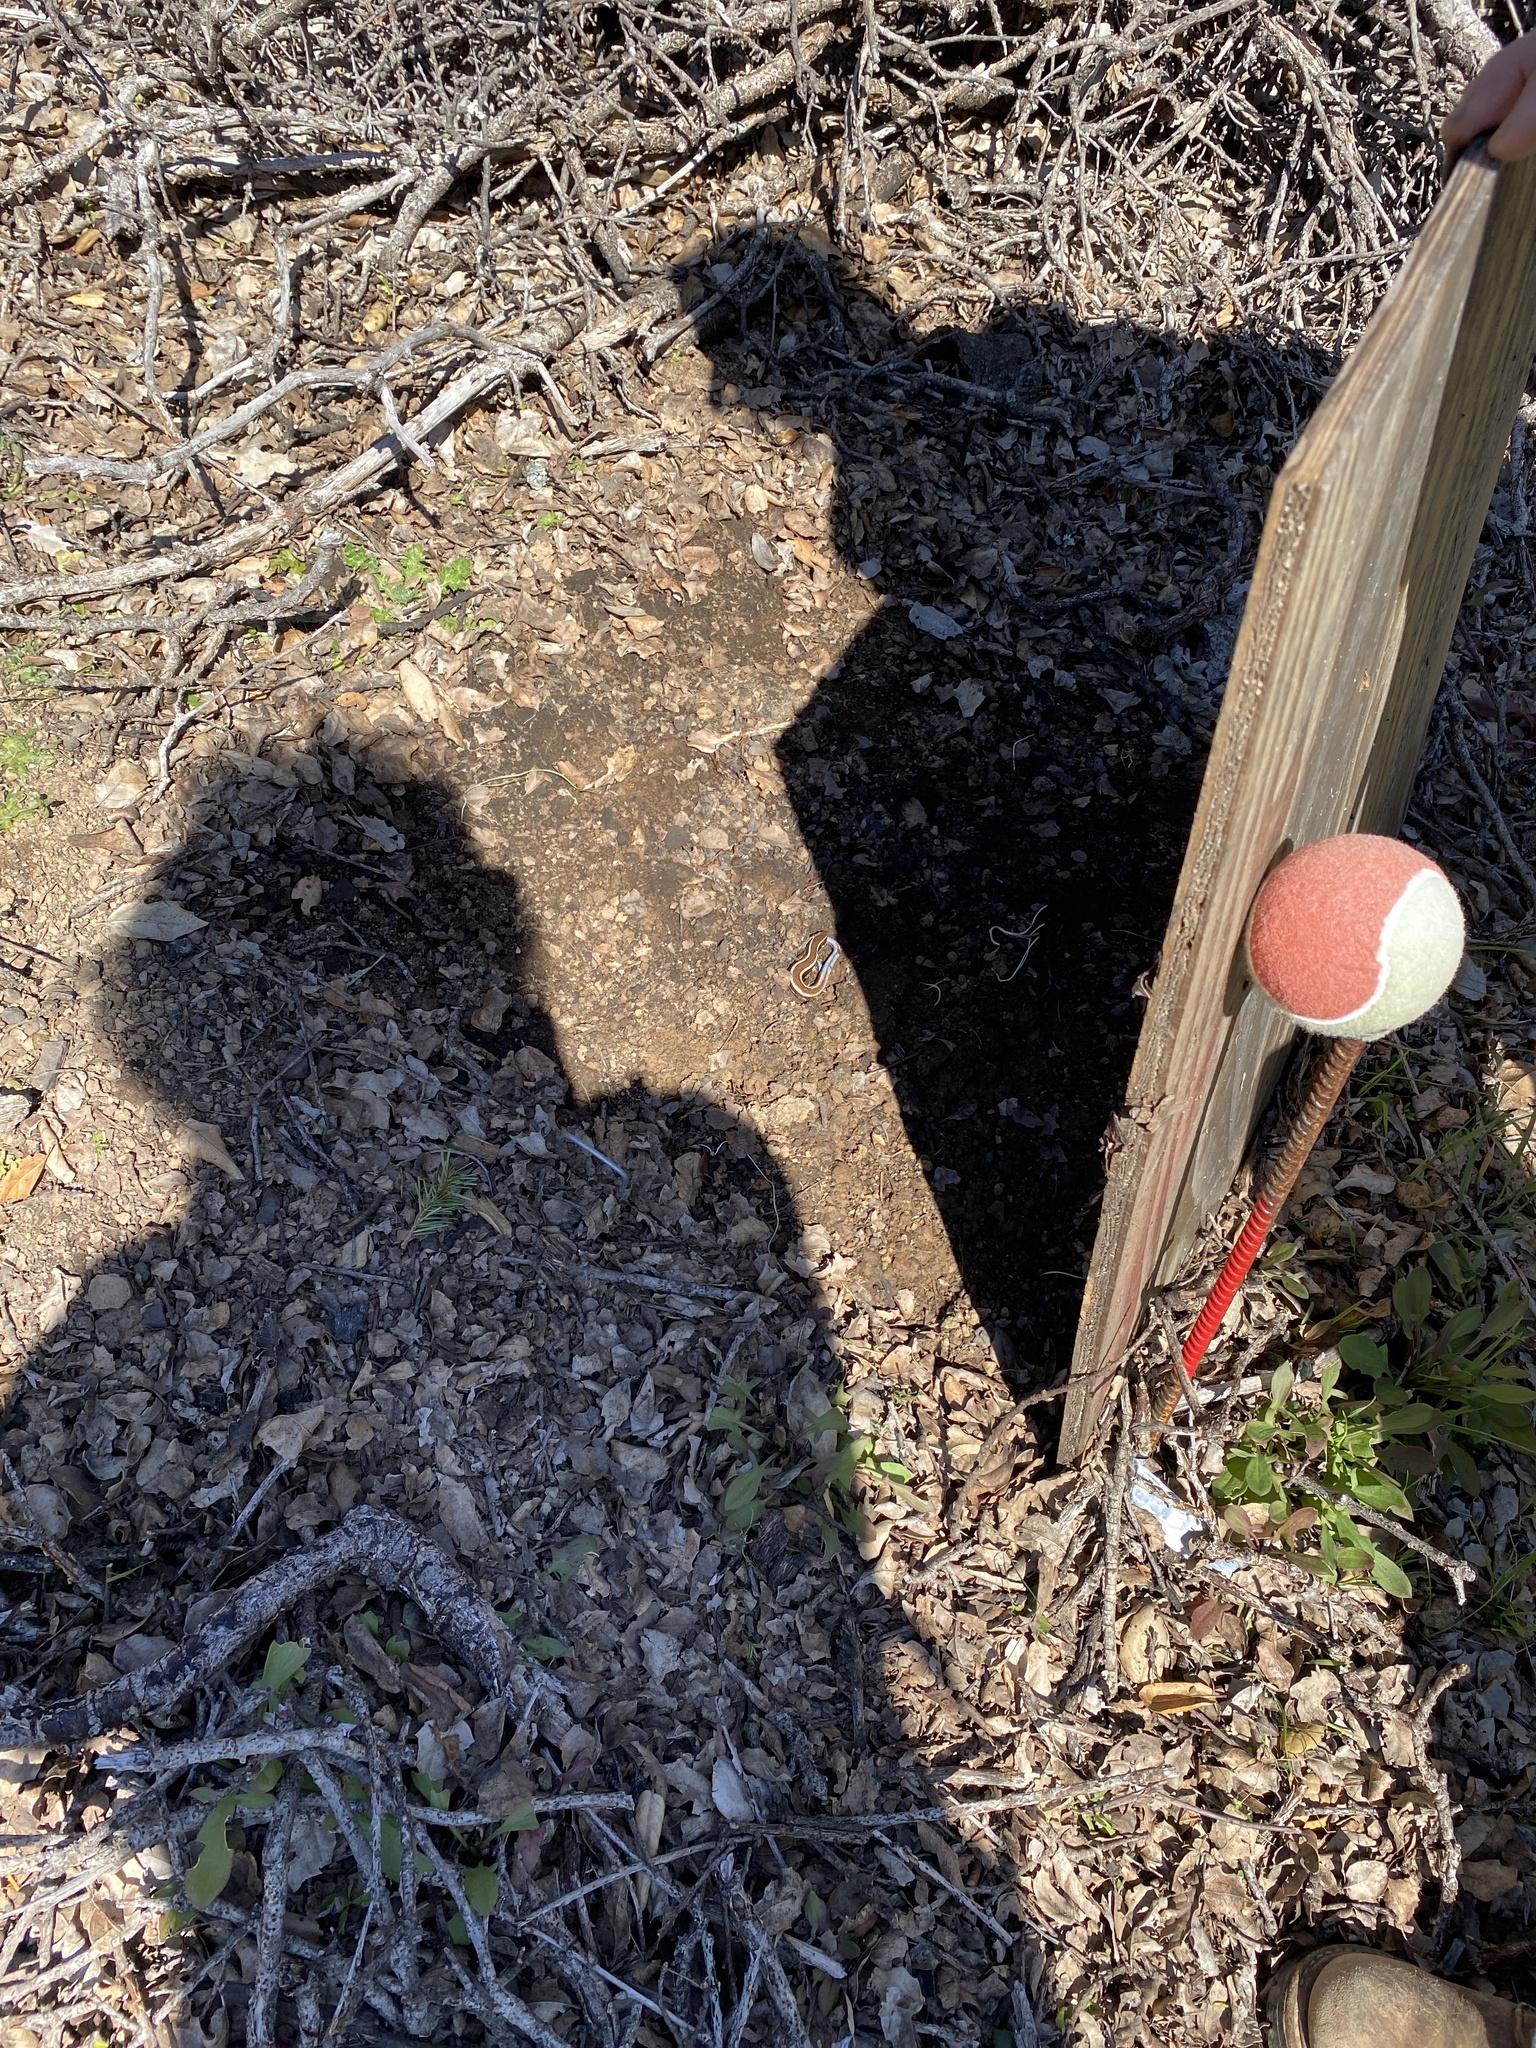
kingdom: Animalia
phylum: Chordata
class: Squamata
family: Scincidae
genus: Plestiodon
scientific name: Plestiodon skiltonianus
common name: Coronado island skink [interparietalis]
